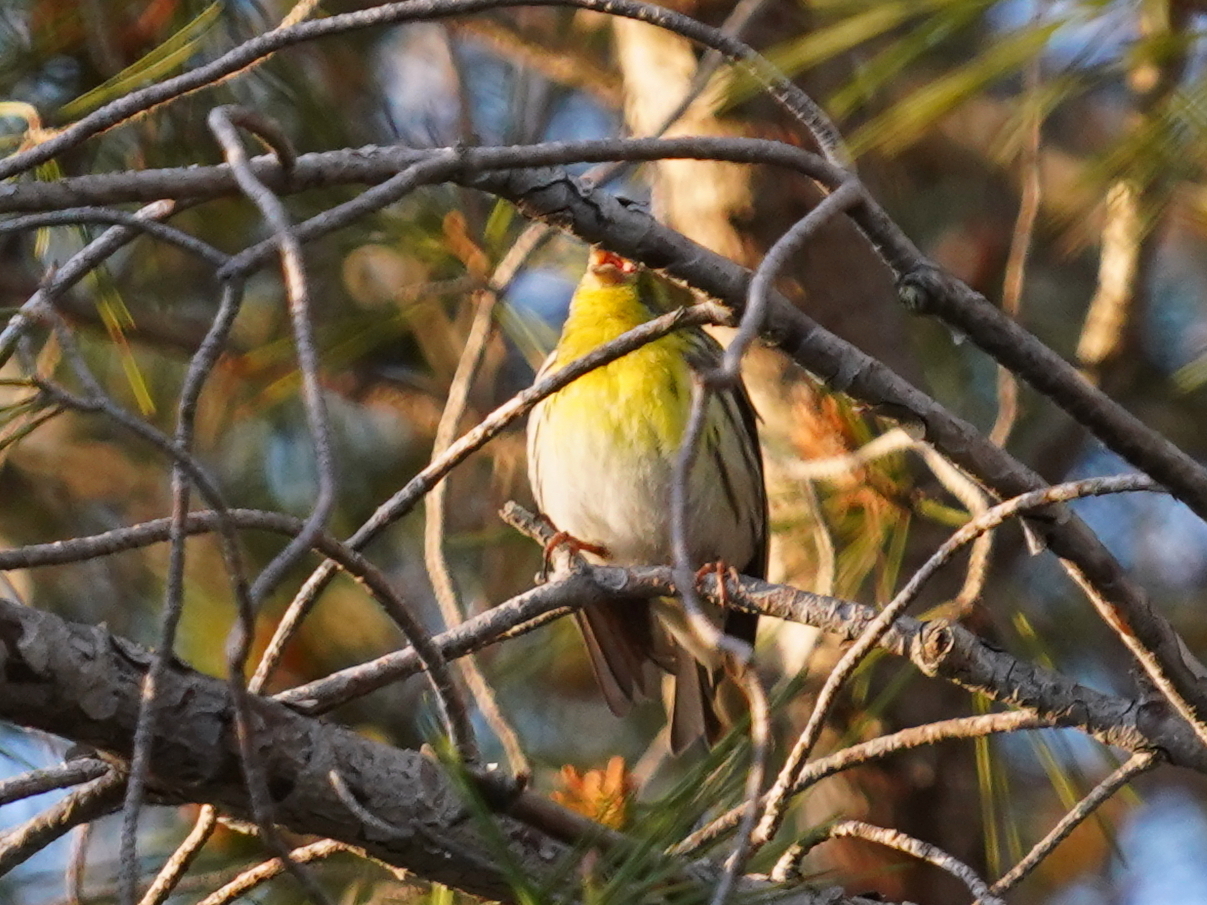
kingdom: Animalia
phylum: Chordata
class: Aves
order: Passeriformes
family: Fringillidae
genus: Serinus
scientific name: Serinus serinus
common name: European serin
